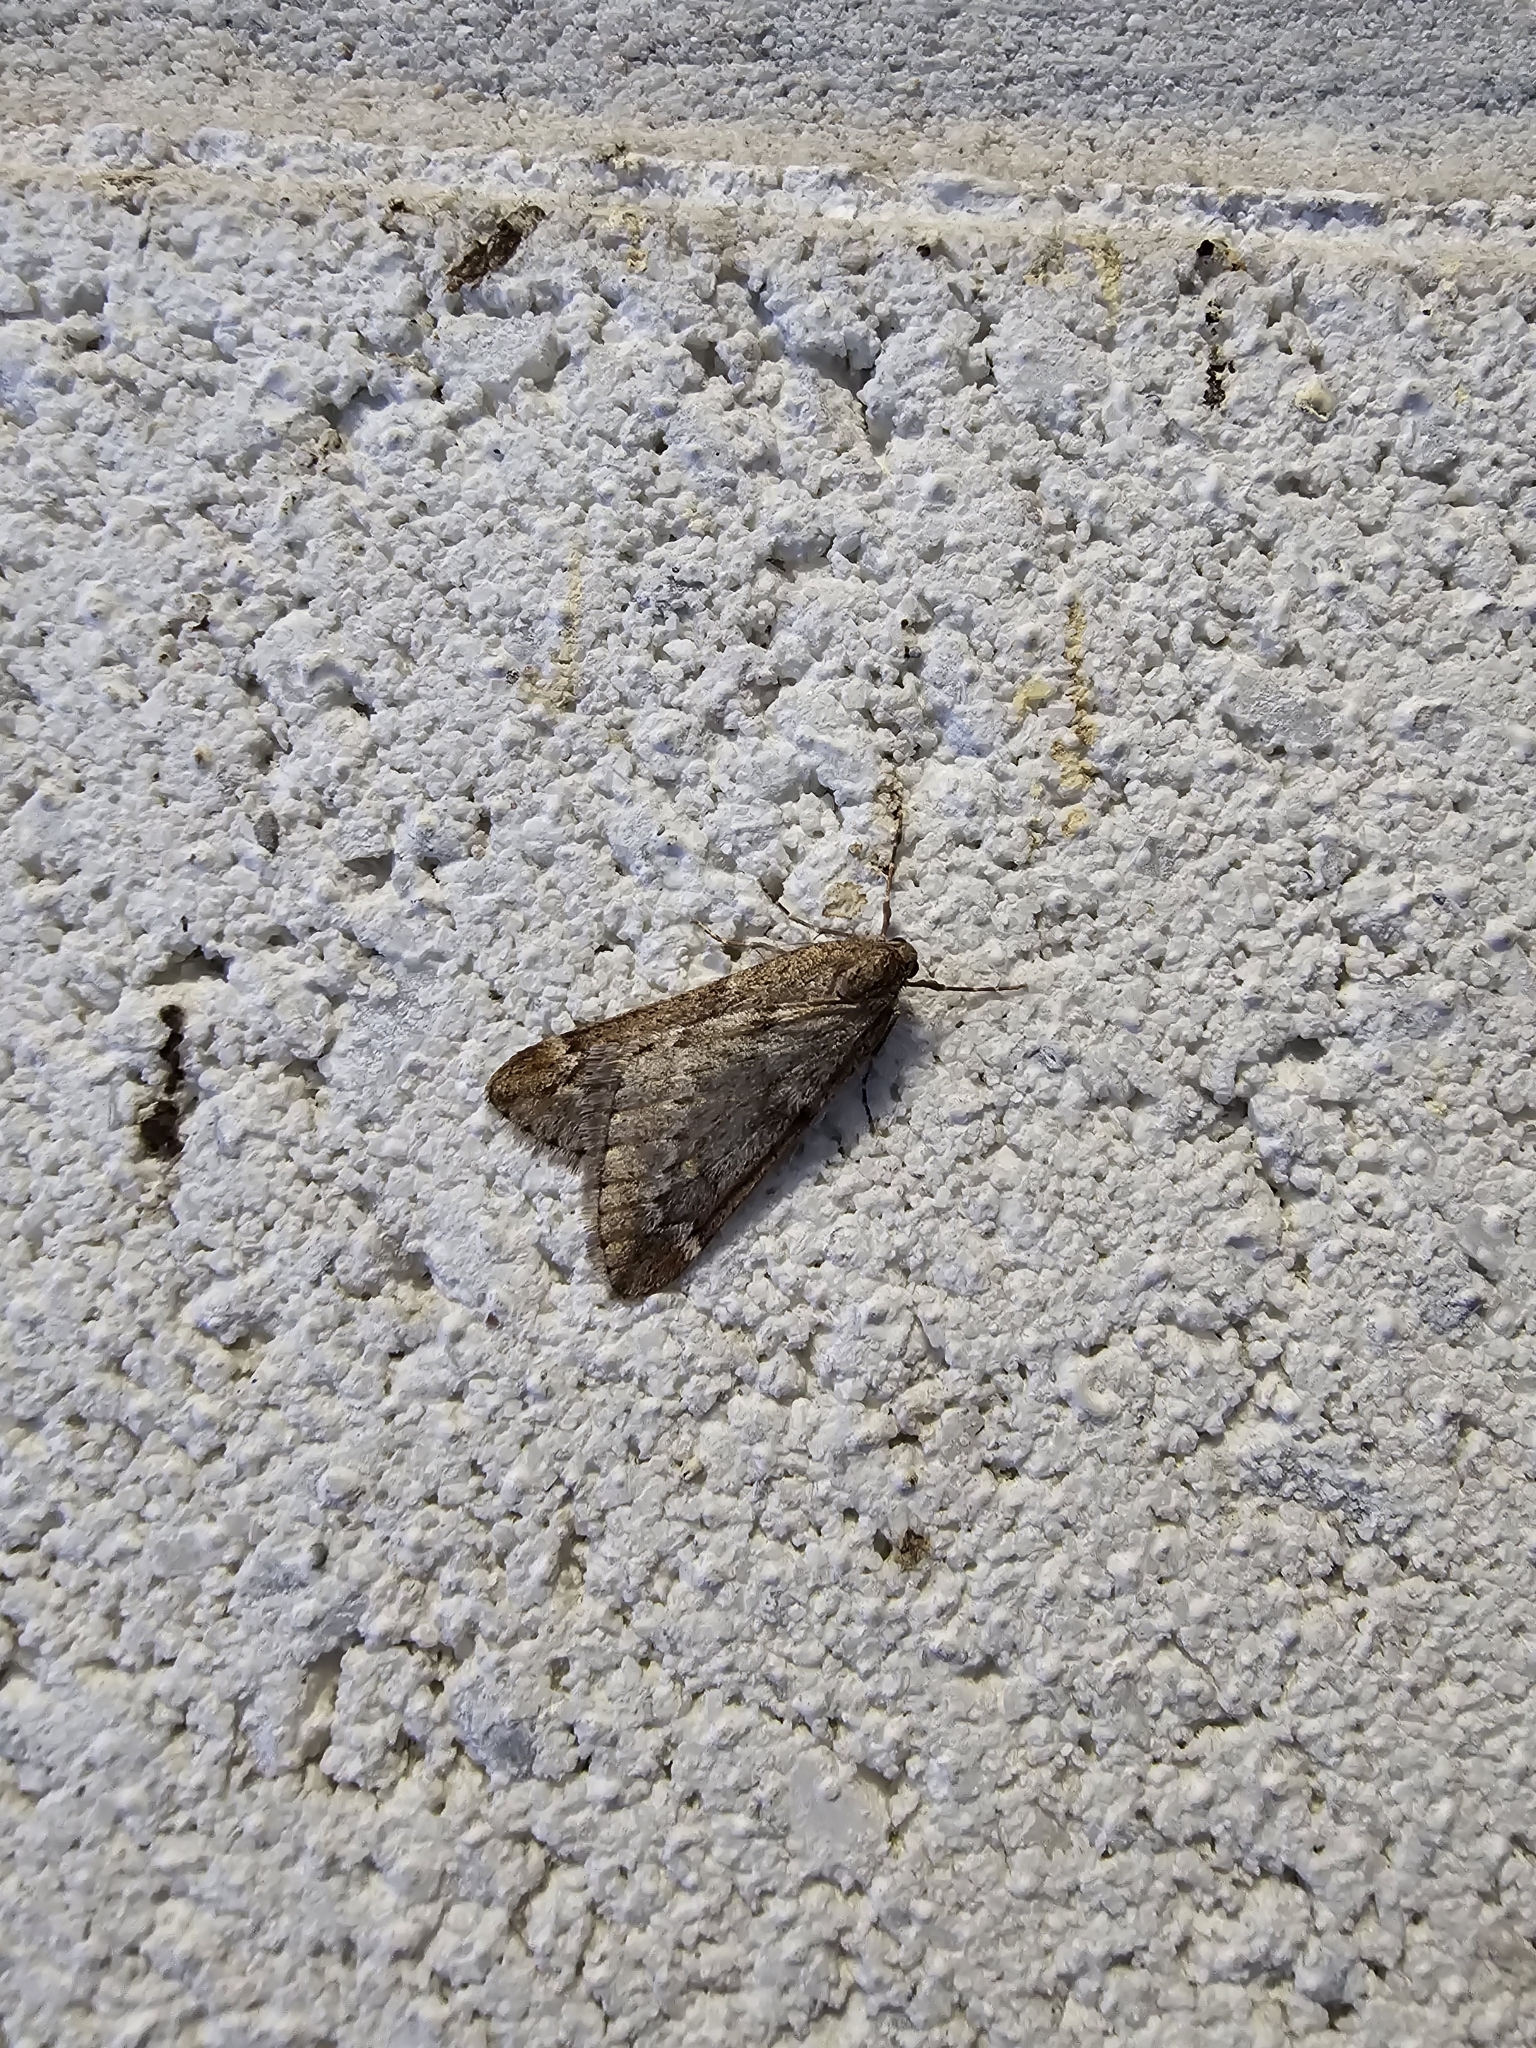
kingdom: Animalia
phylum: Arthropoda
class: Insecta
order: Lepidoptera
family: Geometridae
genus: Alsophila
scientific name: Alsophila aescularia
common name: March moth
